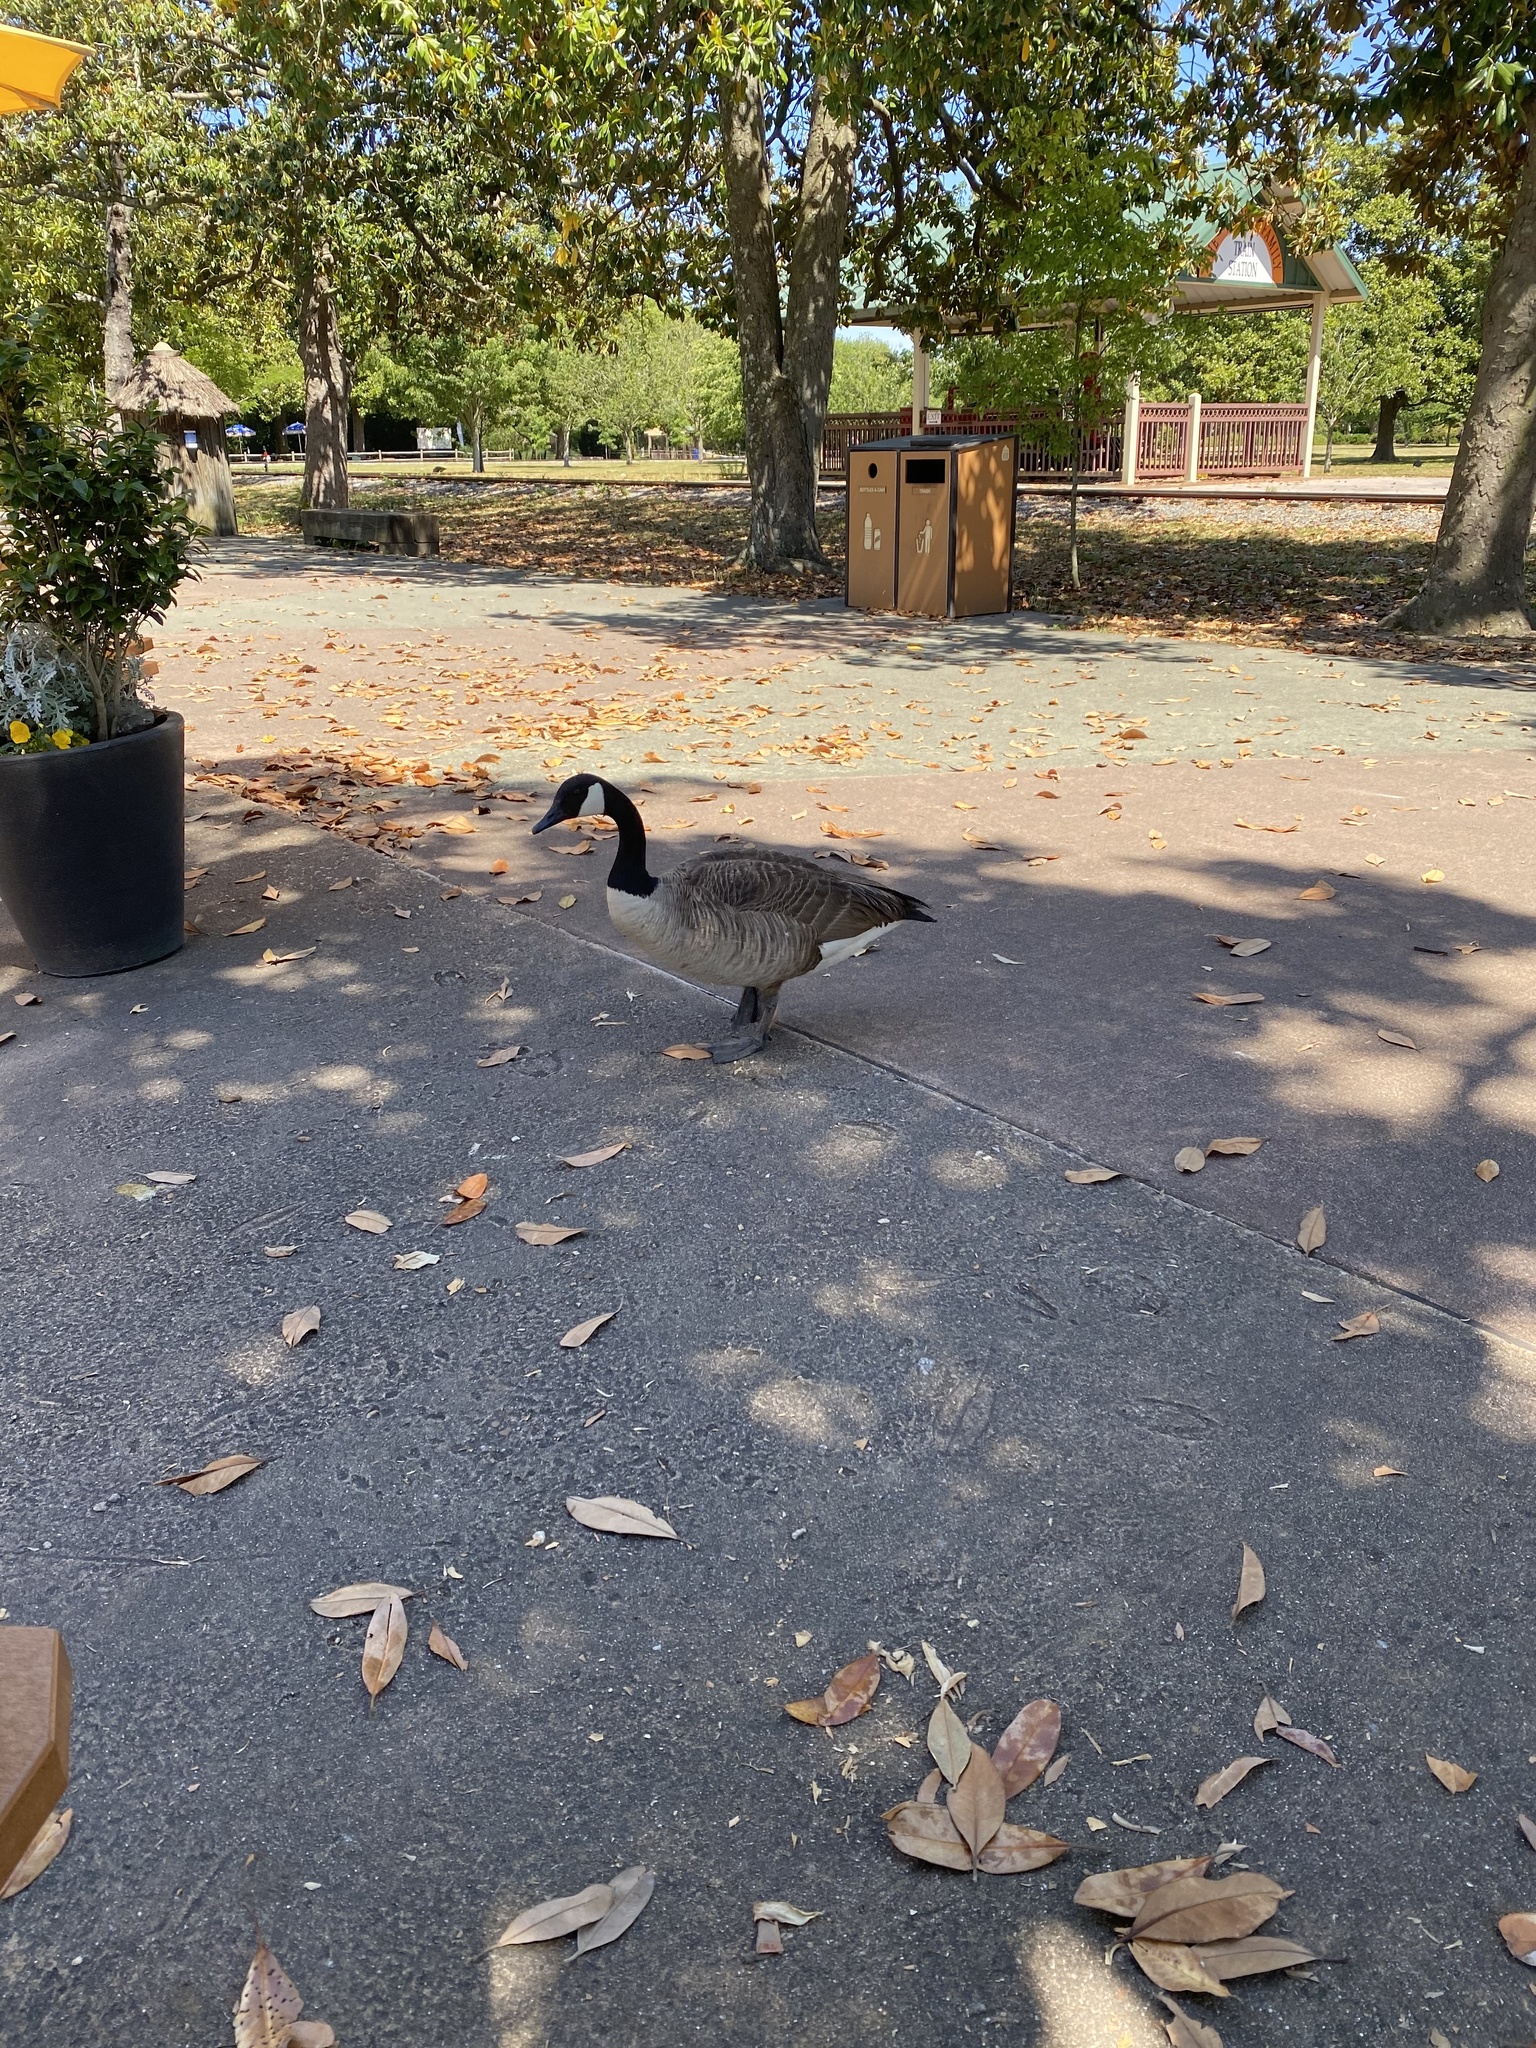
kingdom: Animalia
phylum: Chordata
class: Aves
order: Anseriformes
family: Anatidae
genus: Branta
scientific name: Branta canadensis
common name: Canada goose
